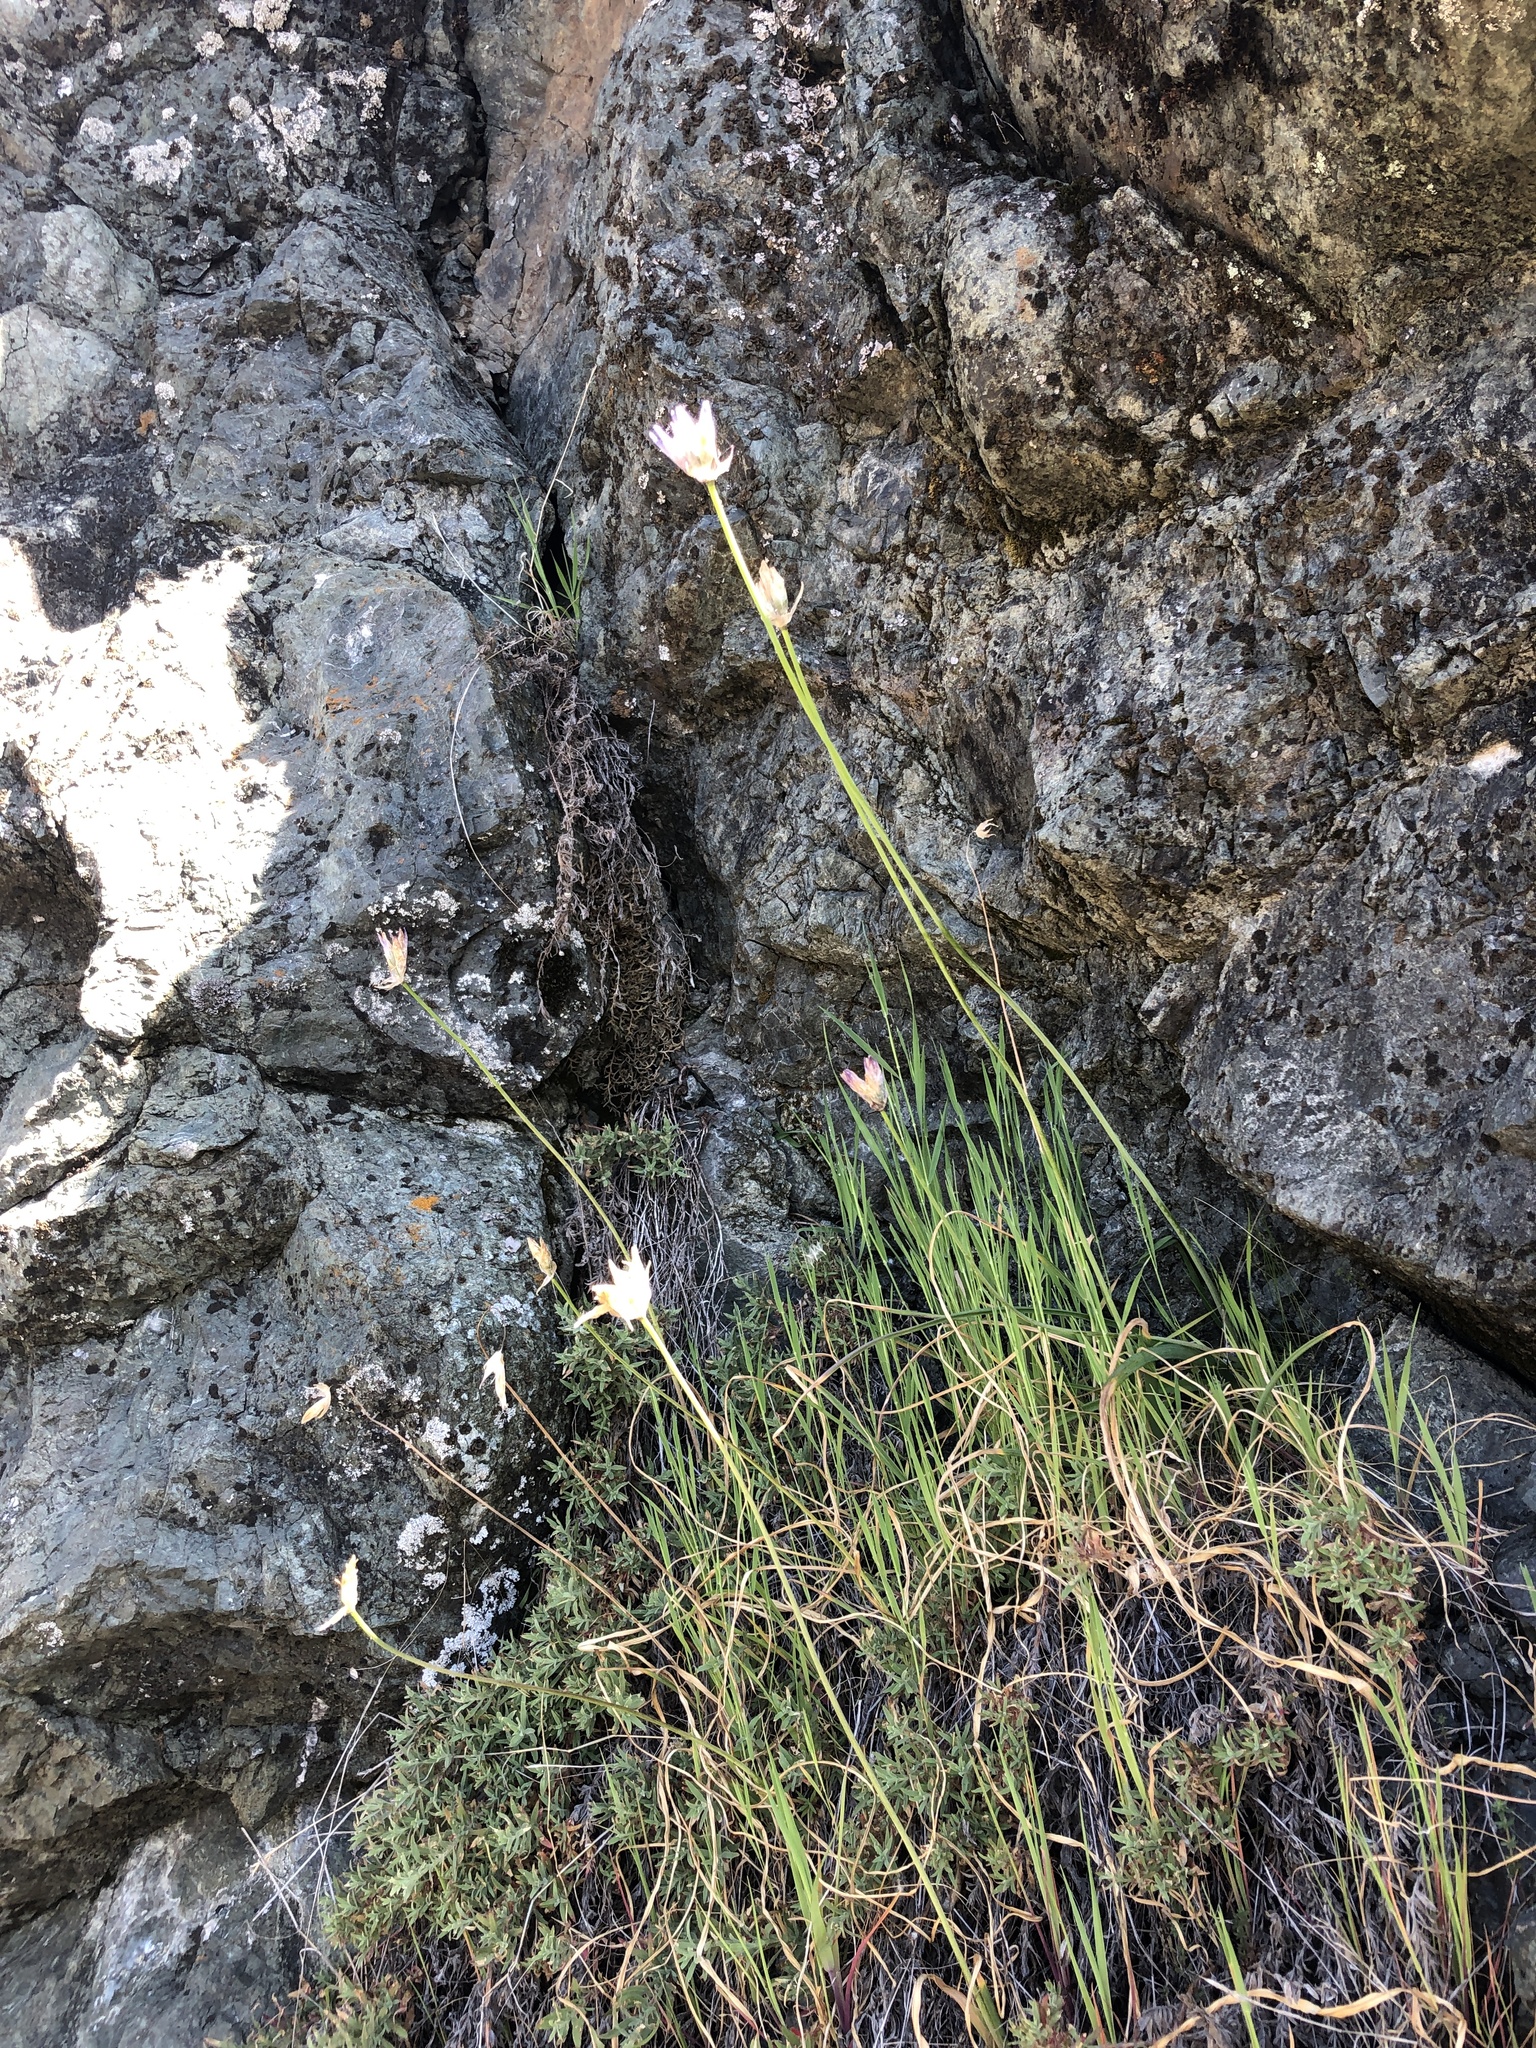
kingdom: Plantae
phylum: Tracheophyta
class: Liliopsida
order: Asparagales
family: Asparagaceae
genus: Dipterostemon
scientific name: Dipterostemon capitatus
